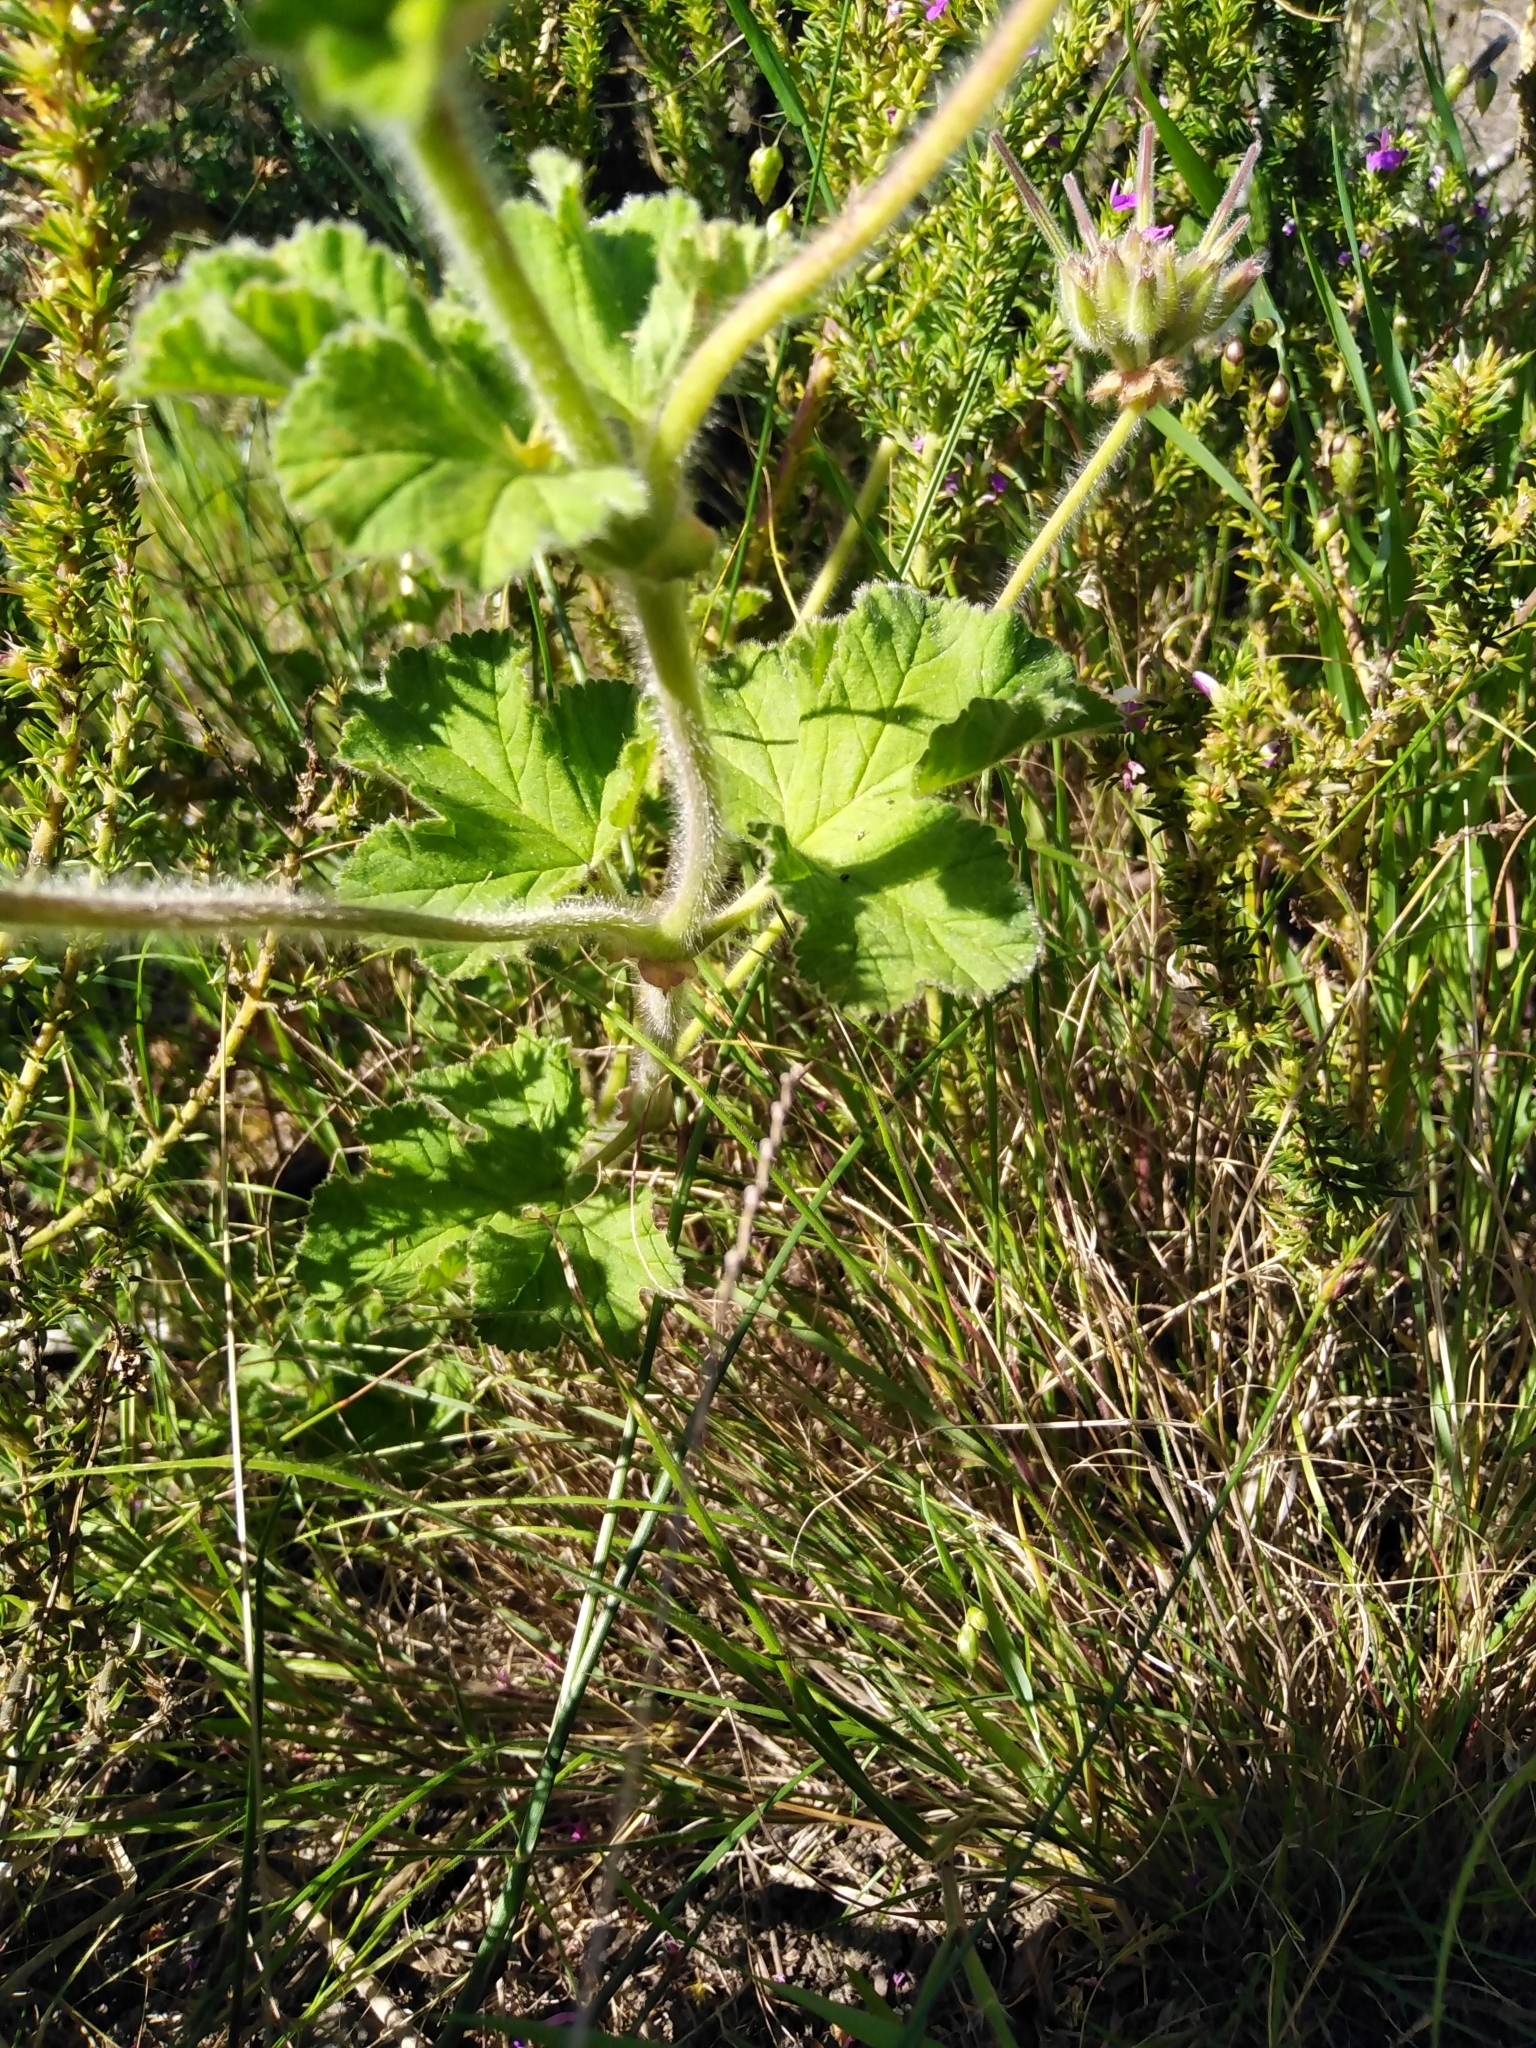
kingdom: Plantae
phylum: Tracheophyta
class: Magnoliopsida
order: Geraniales
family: Geraniaceae
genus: Pelargonium
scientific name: Pelargonium capitatum
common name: Rose scented geranium
